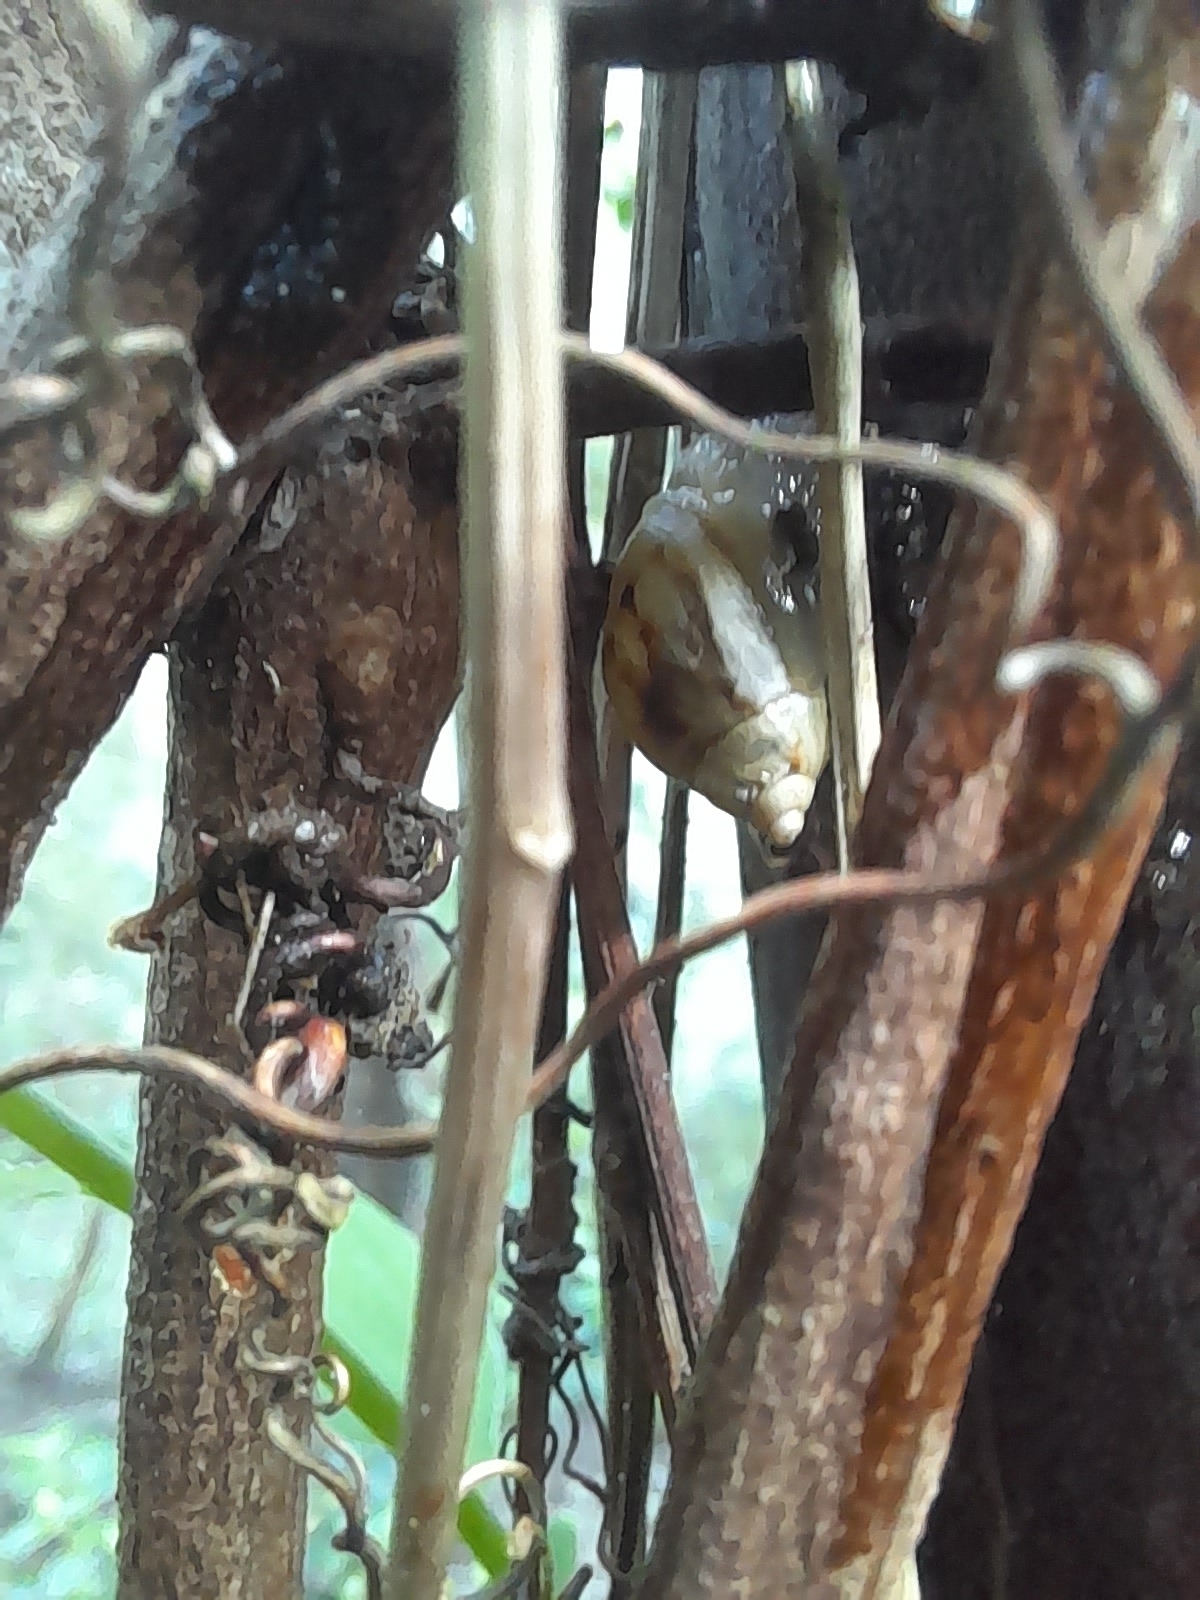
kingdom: Animalia
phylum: Mollusca
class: Gastropoda
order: Stylommatophora
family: Bothriembryontidae
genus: Plectostylus
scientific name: Plectostylus vagabondiae
